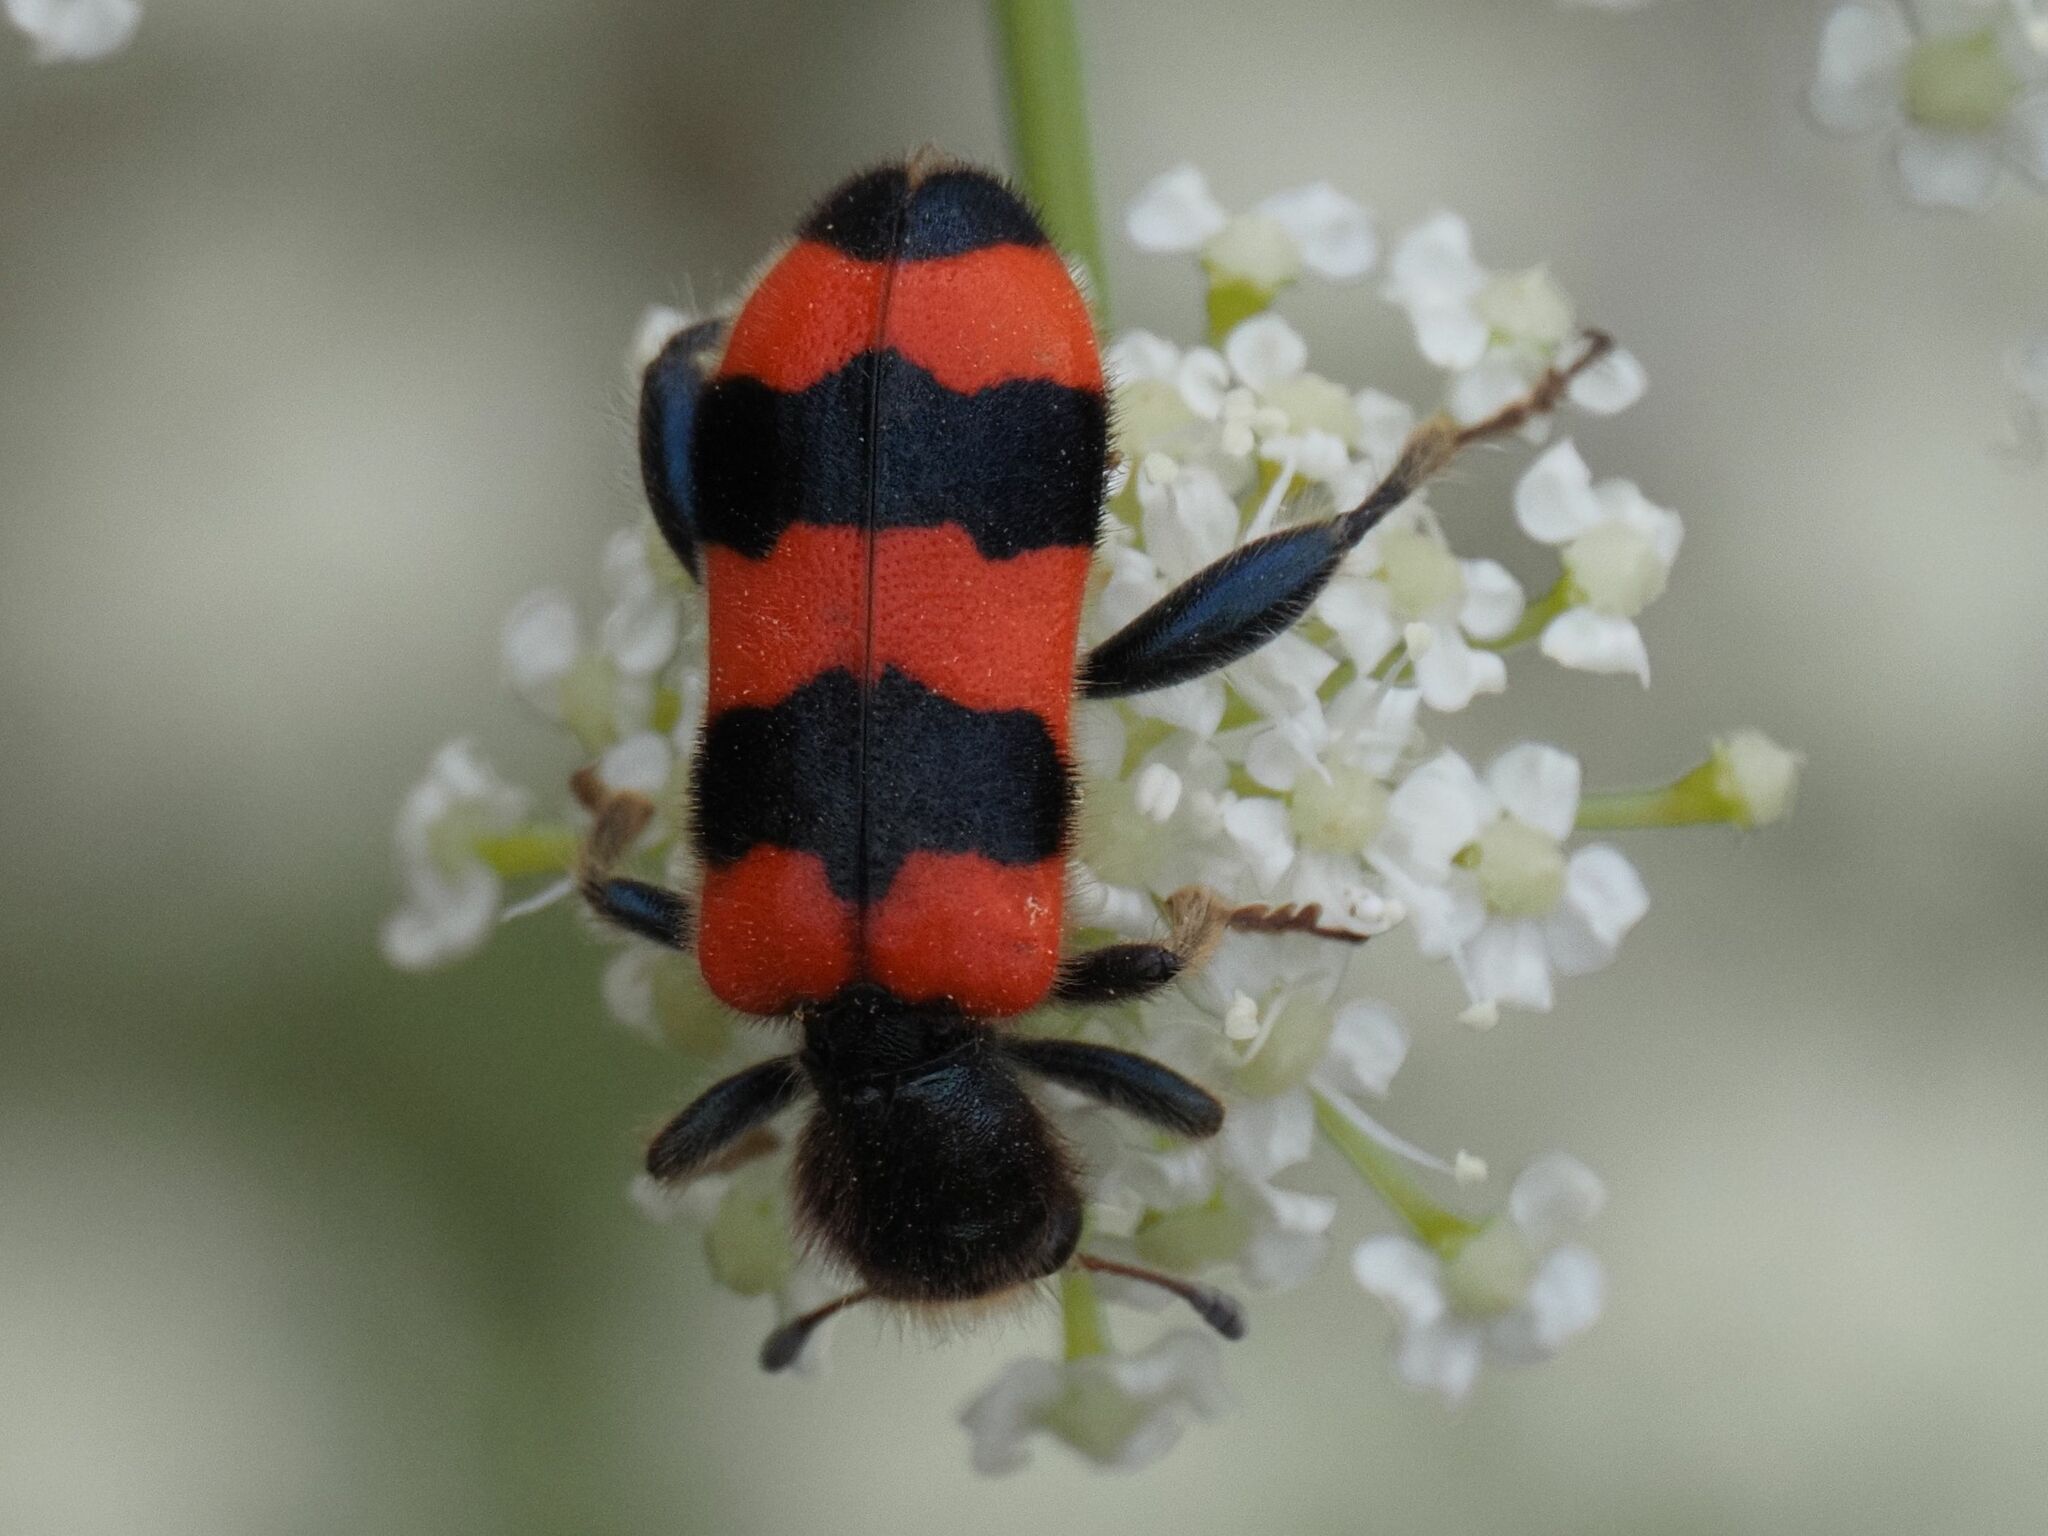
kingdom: Animalia
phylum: Arthropoda
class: Insecta
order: Coleoptera
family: Cleridae
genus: Trichodes
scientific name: Trichodes apiarius
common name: Bee-eating beetle
